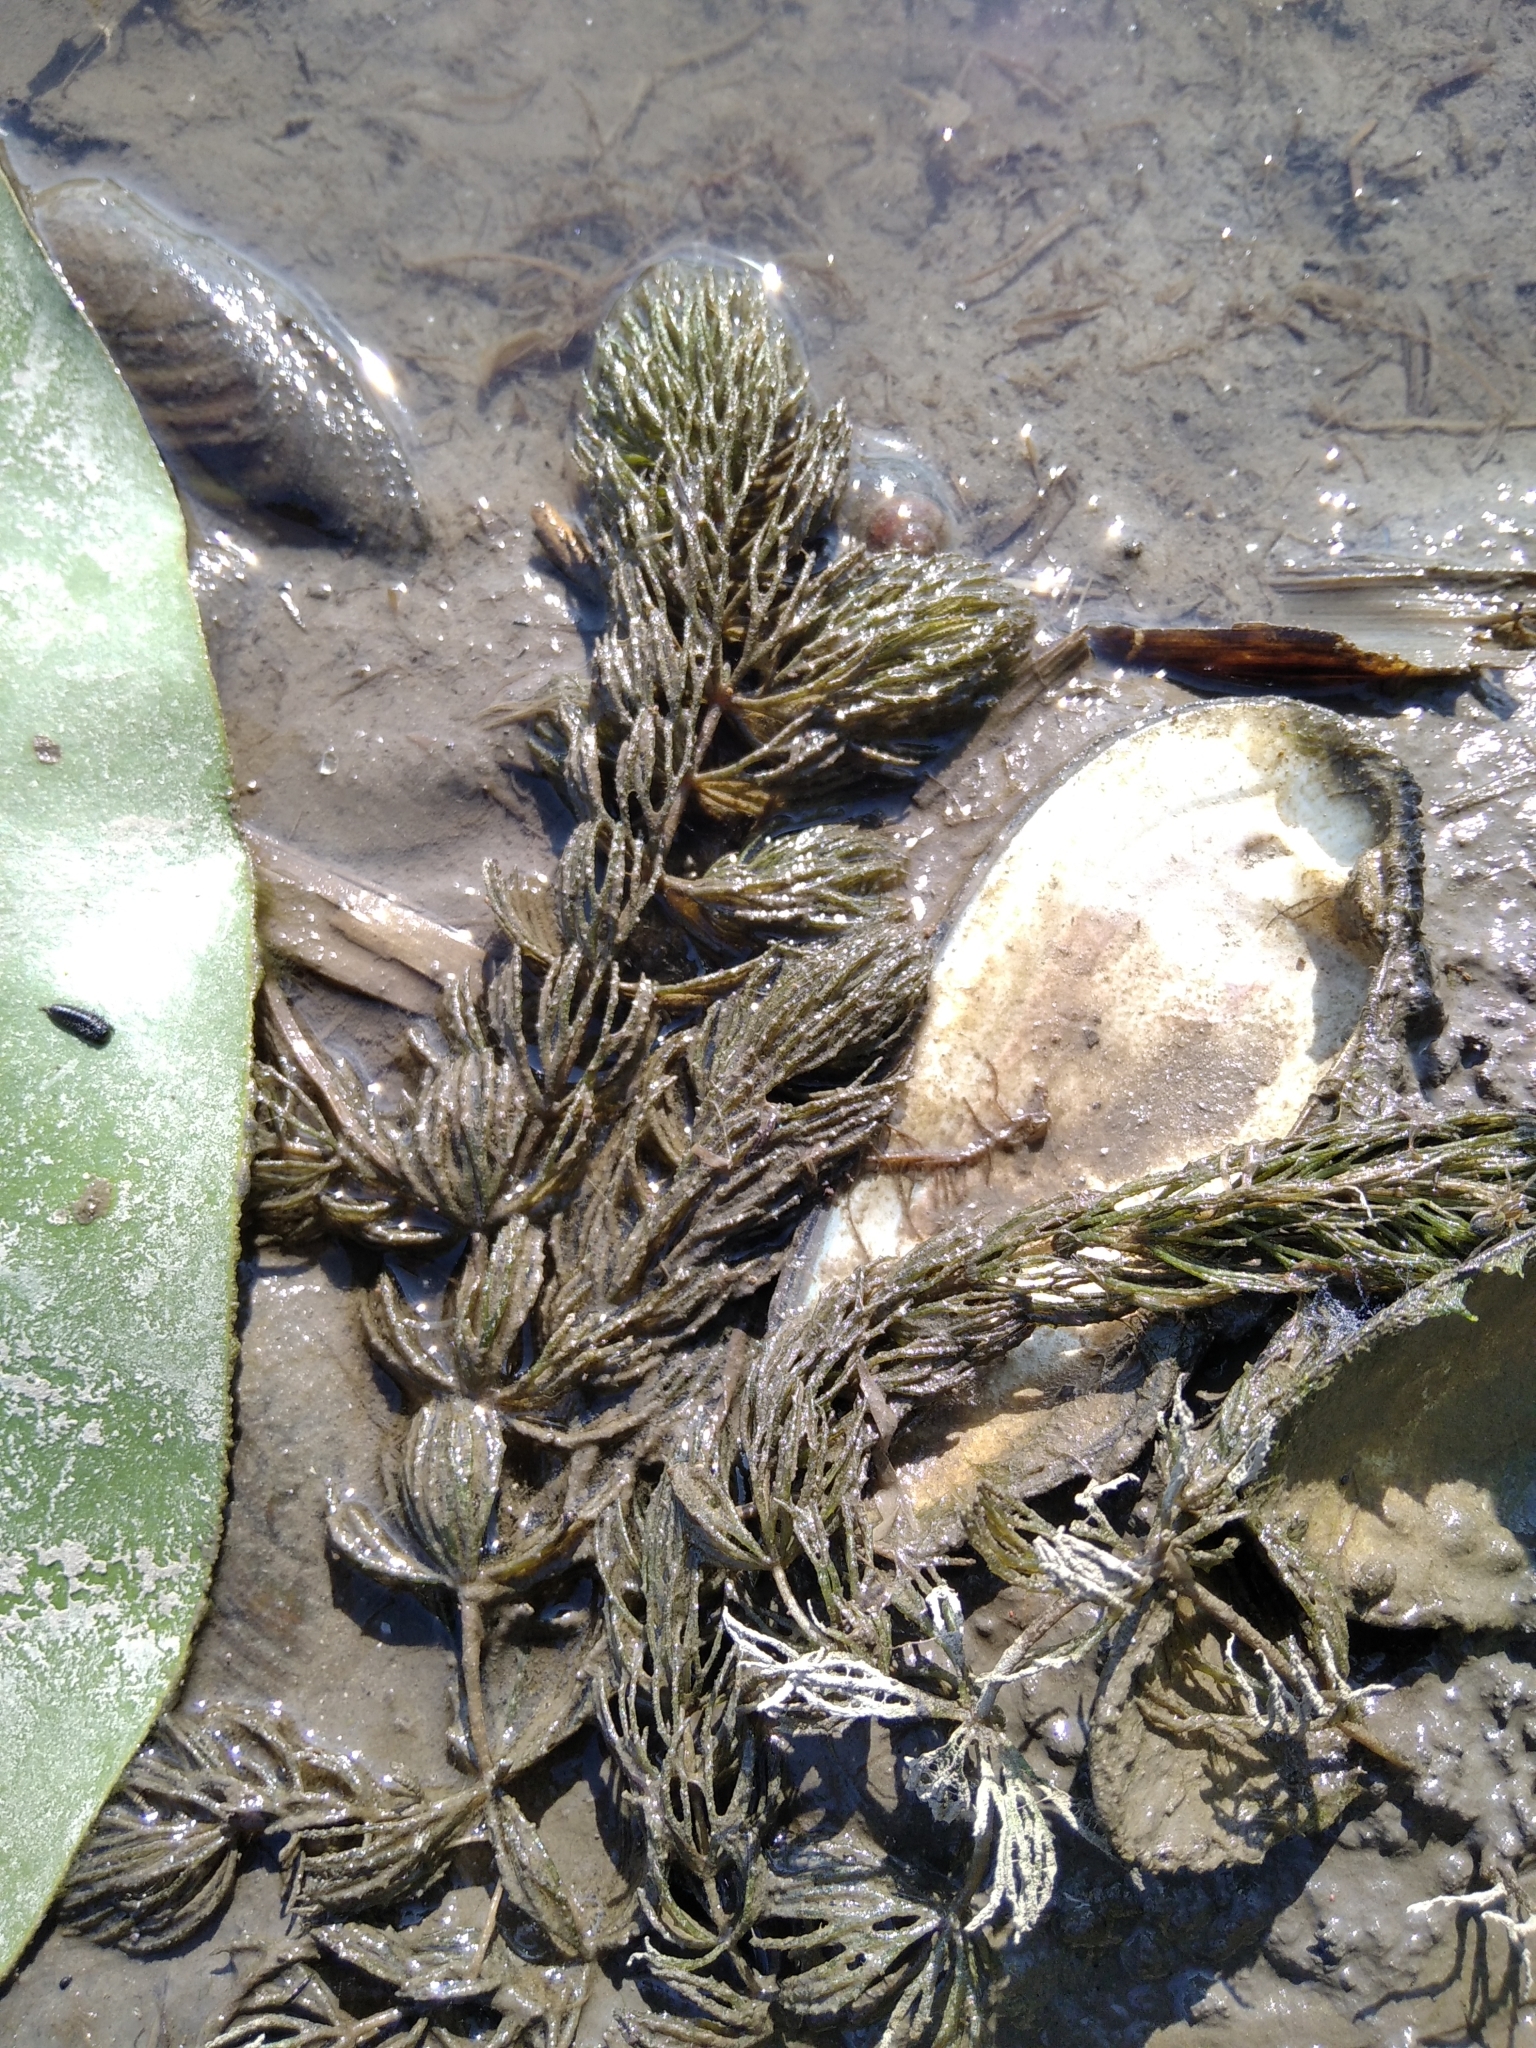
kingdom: Plantae
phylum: Tracheophyta
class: Magnoliopsida
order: Ceratophyllales
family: Ceratophyllaceae
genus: Ceratophyllum
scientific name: Ceratophyllum demersum
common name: Rigid hornwort
